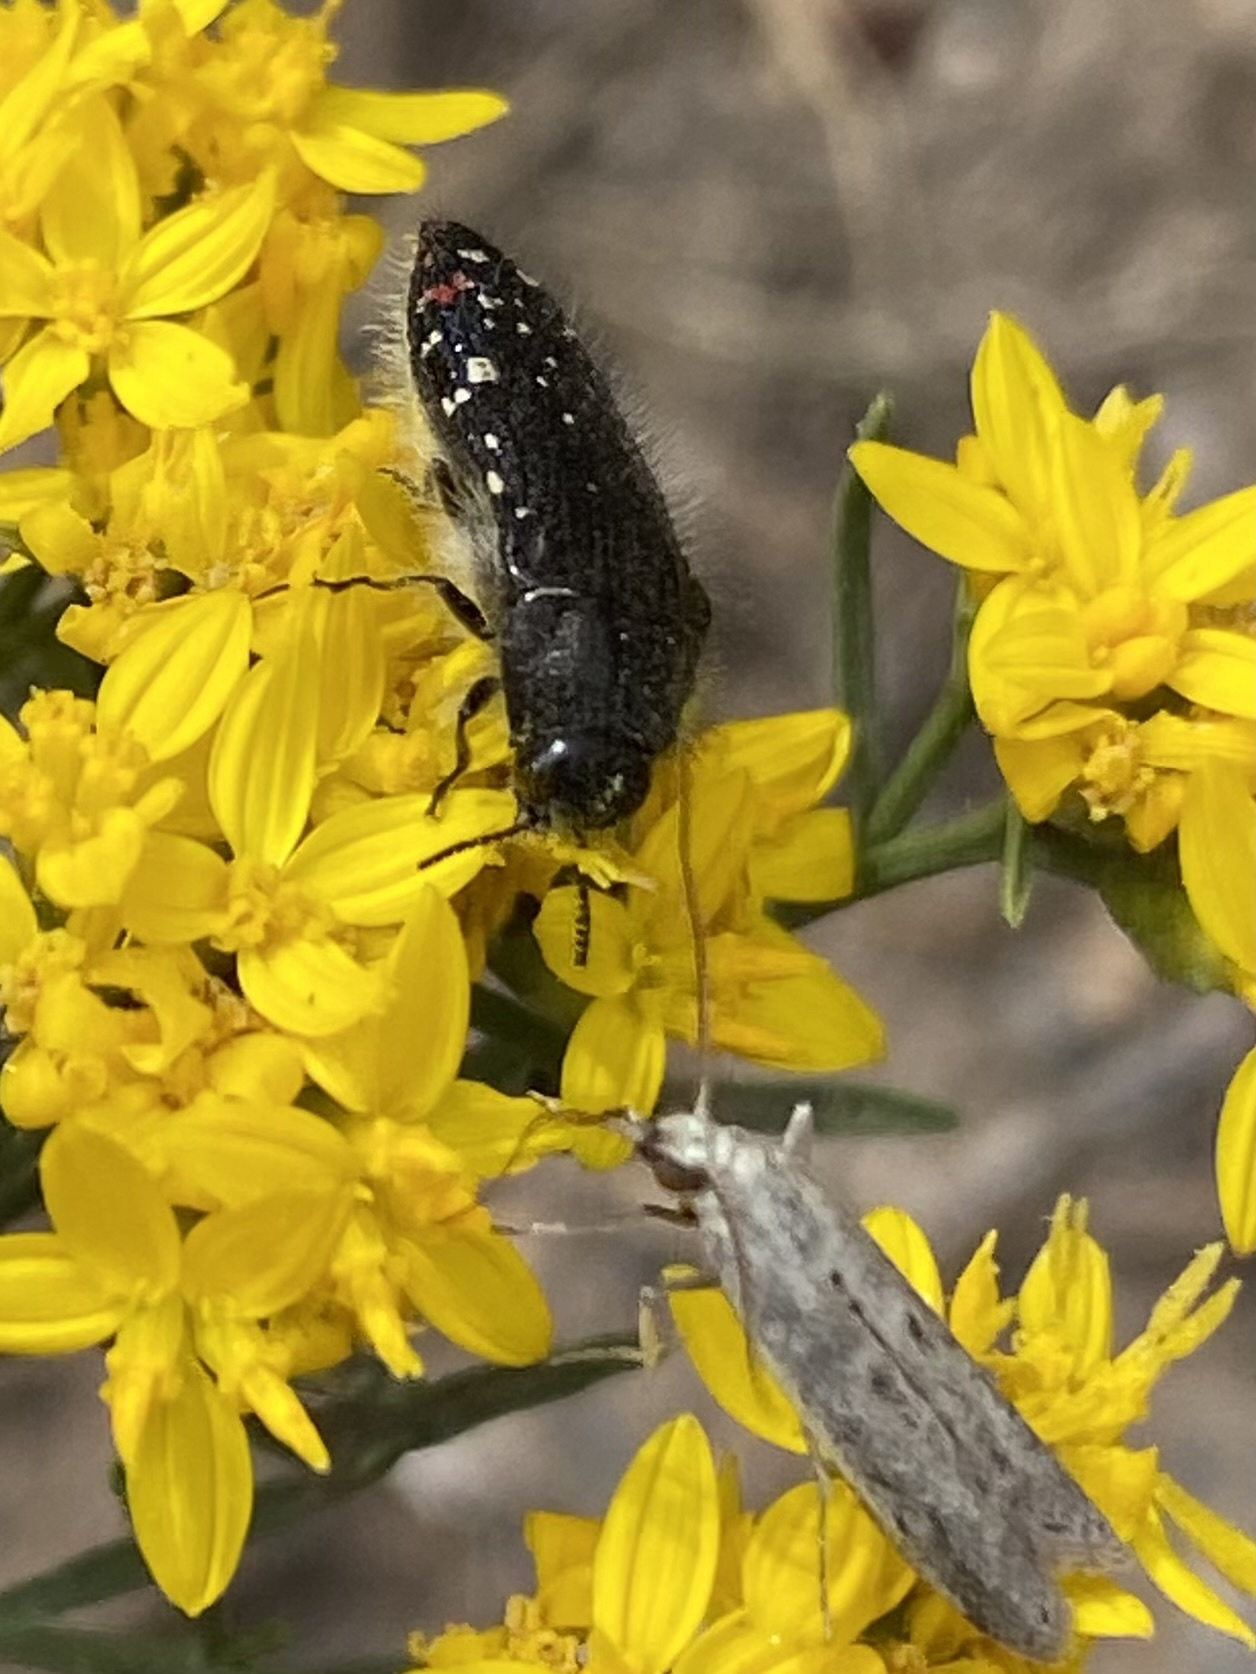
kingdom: Animalia
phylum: Arthropoda
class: Insecta
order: Coleoptera
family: Buprestidae
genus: Acmaeodera
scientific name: Acmaeodera rubronotata
